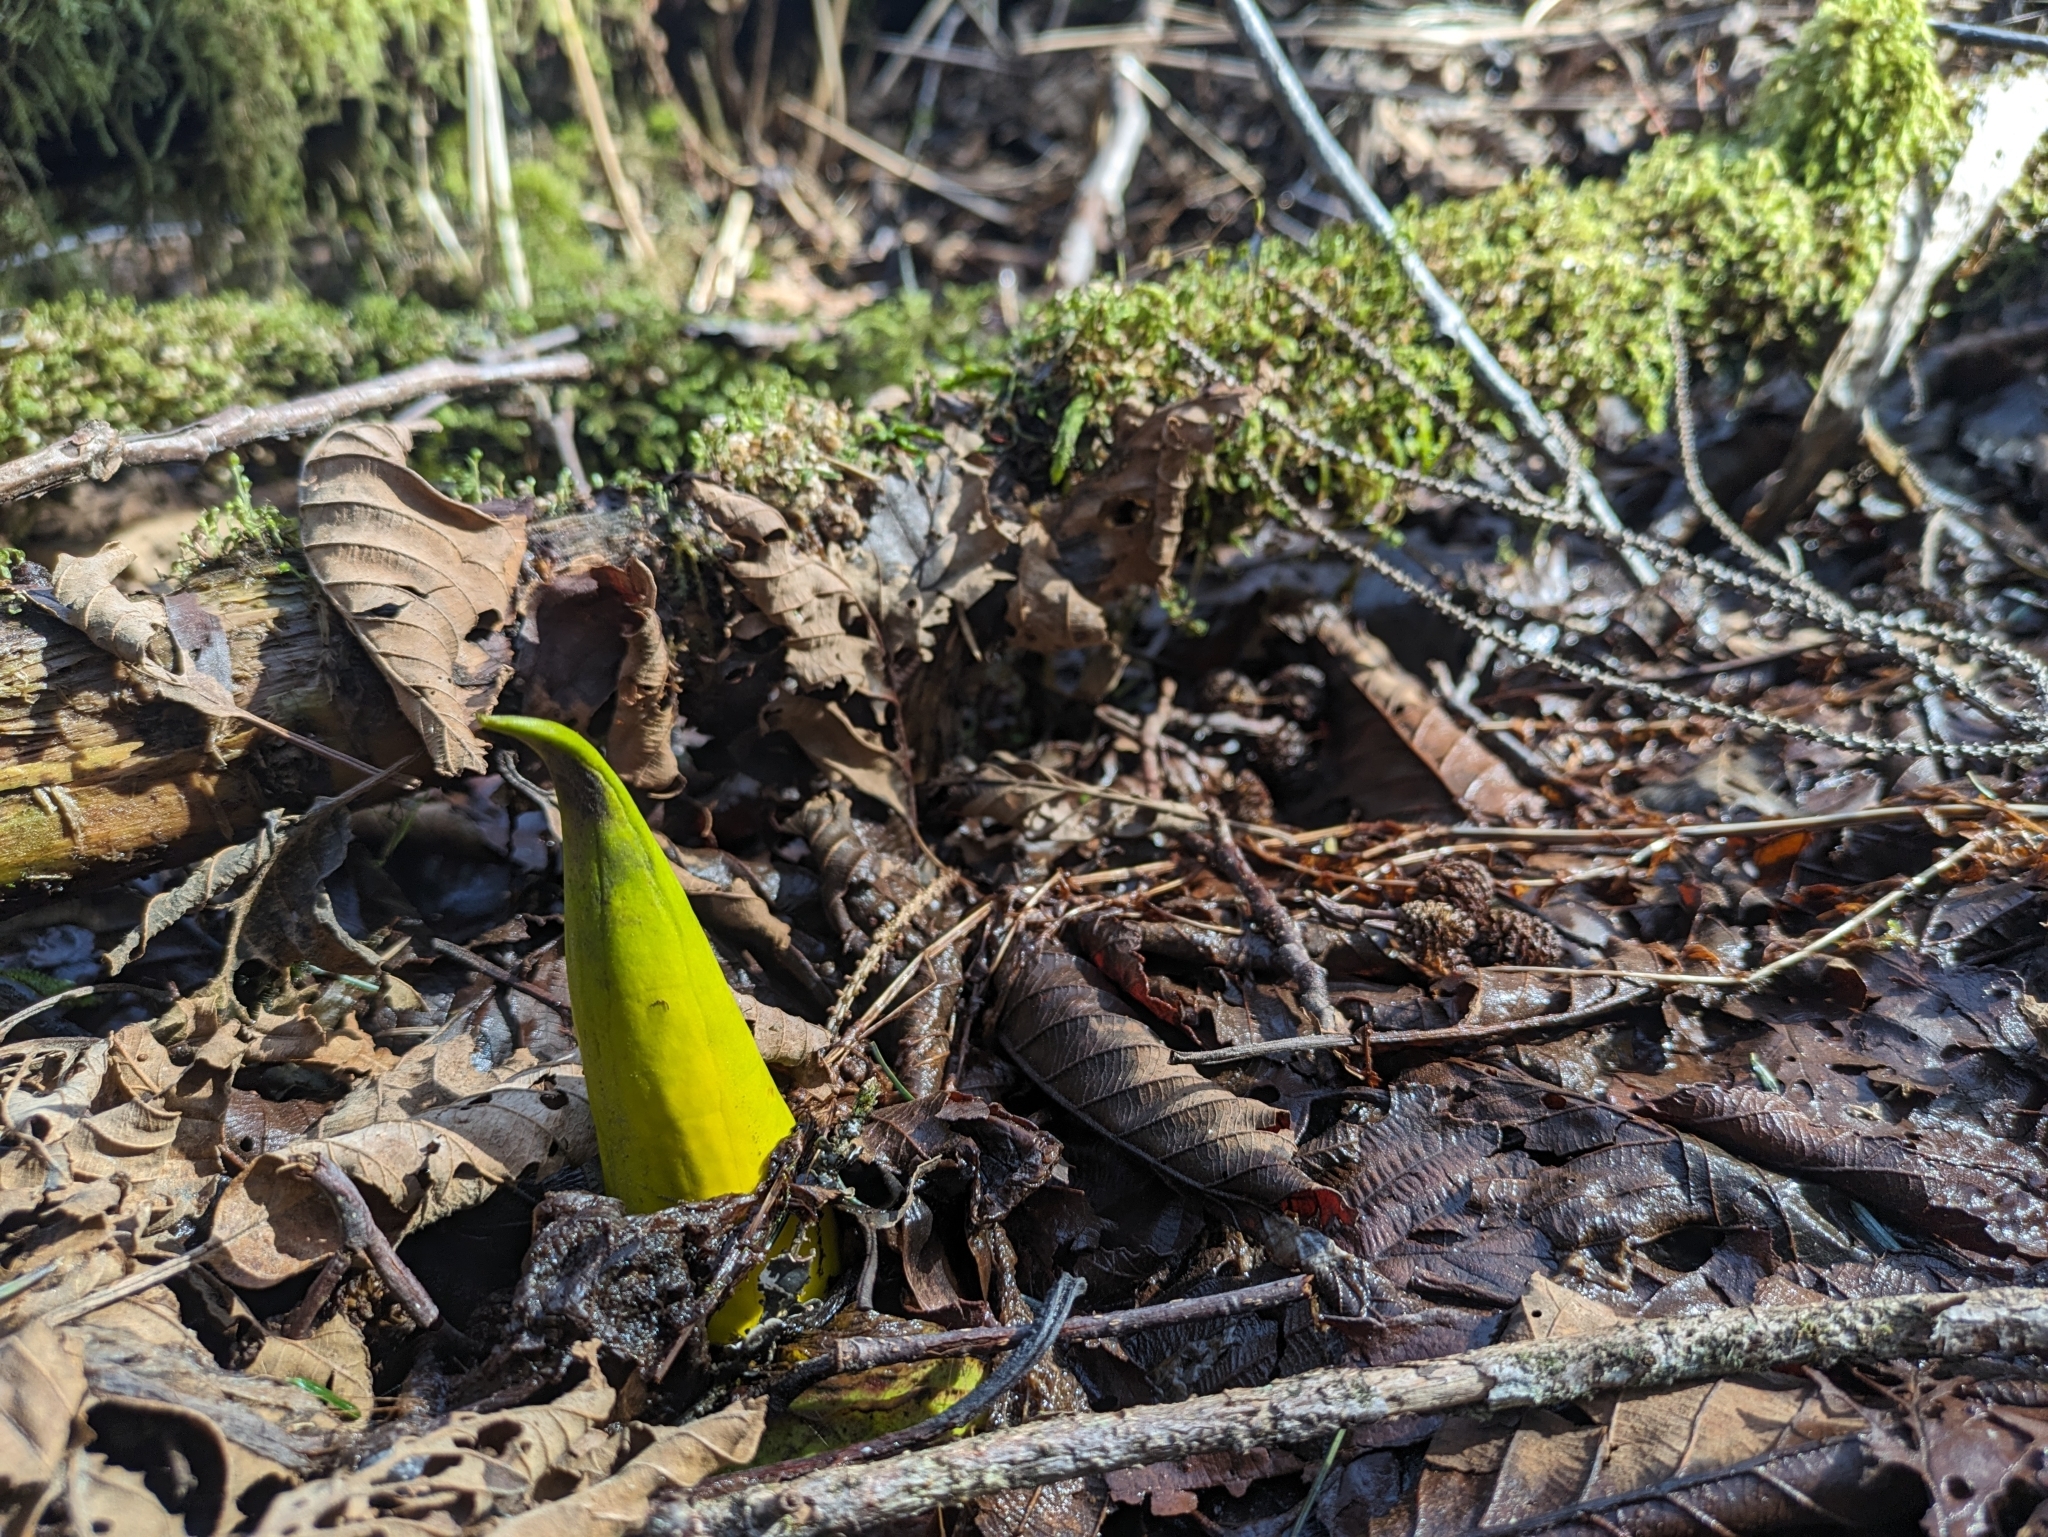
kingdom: Plantae
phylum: Tracheophyta
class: Liliopsida
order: Alismatales
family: Araceae
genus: Lysichiton
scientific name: Lysichiton americanus
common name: American skunk cabbage
